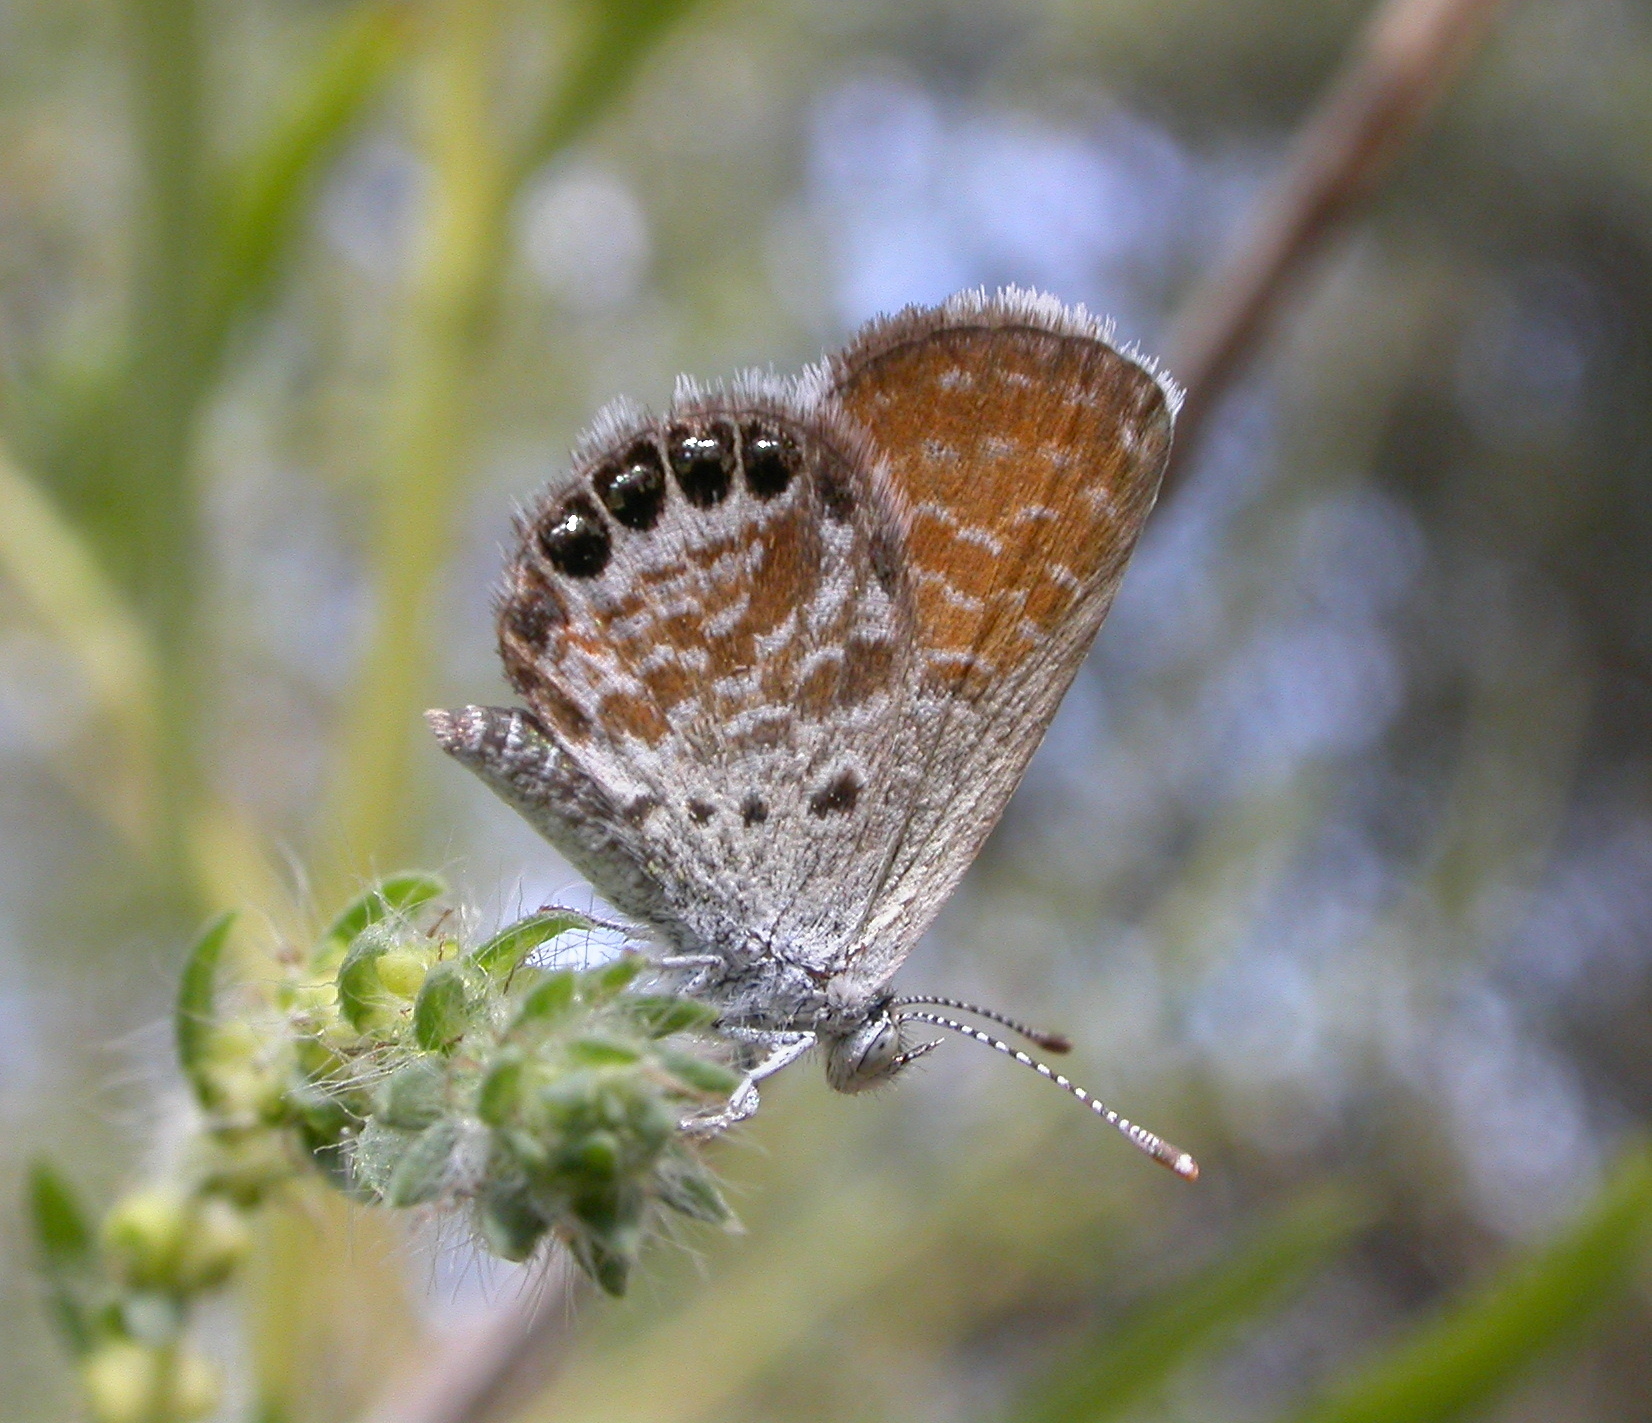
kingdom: Animalia
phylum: Arthropoda
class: Insecta
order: Lepidoptera
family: Lycaenidae
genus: Brephidium
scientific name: Brephidium exilis
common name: Pygmy blue
